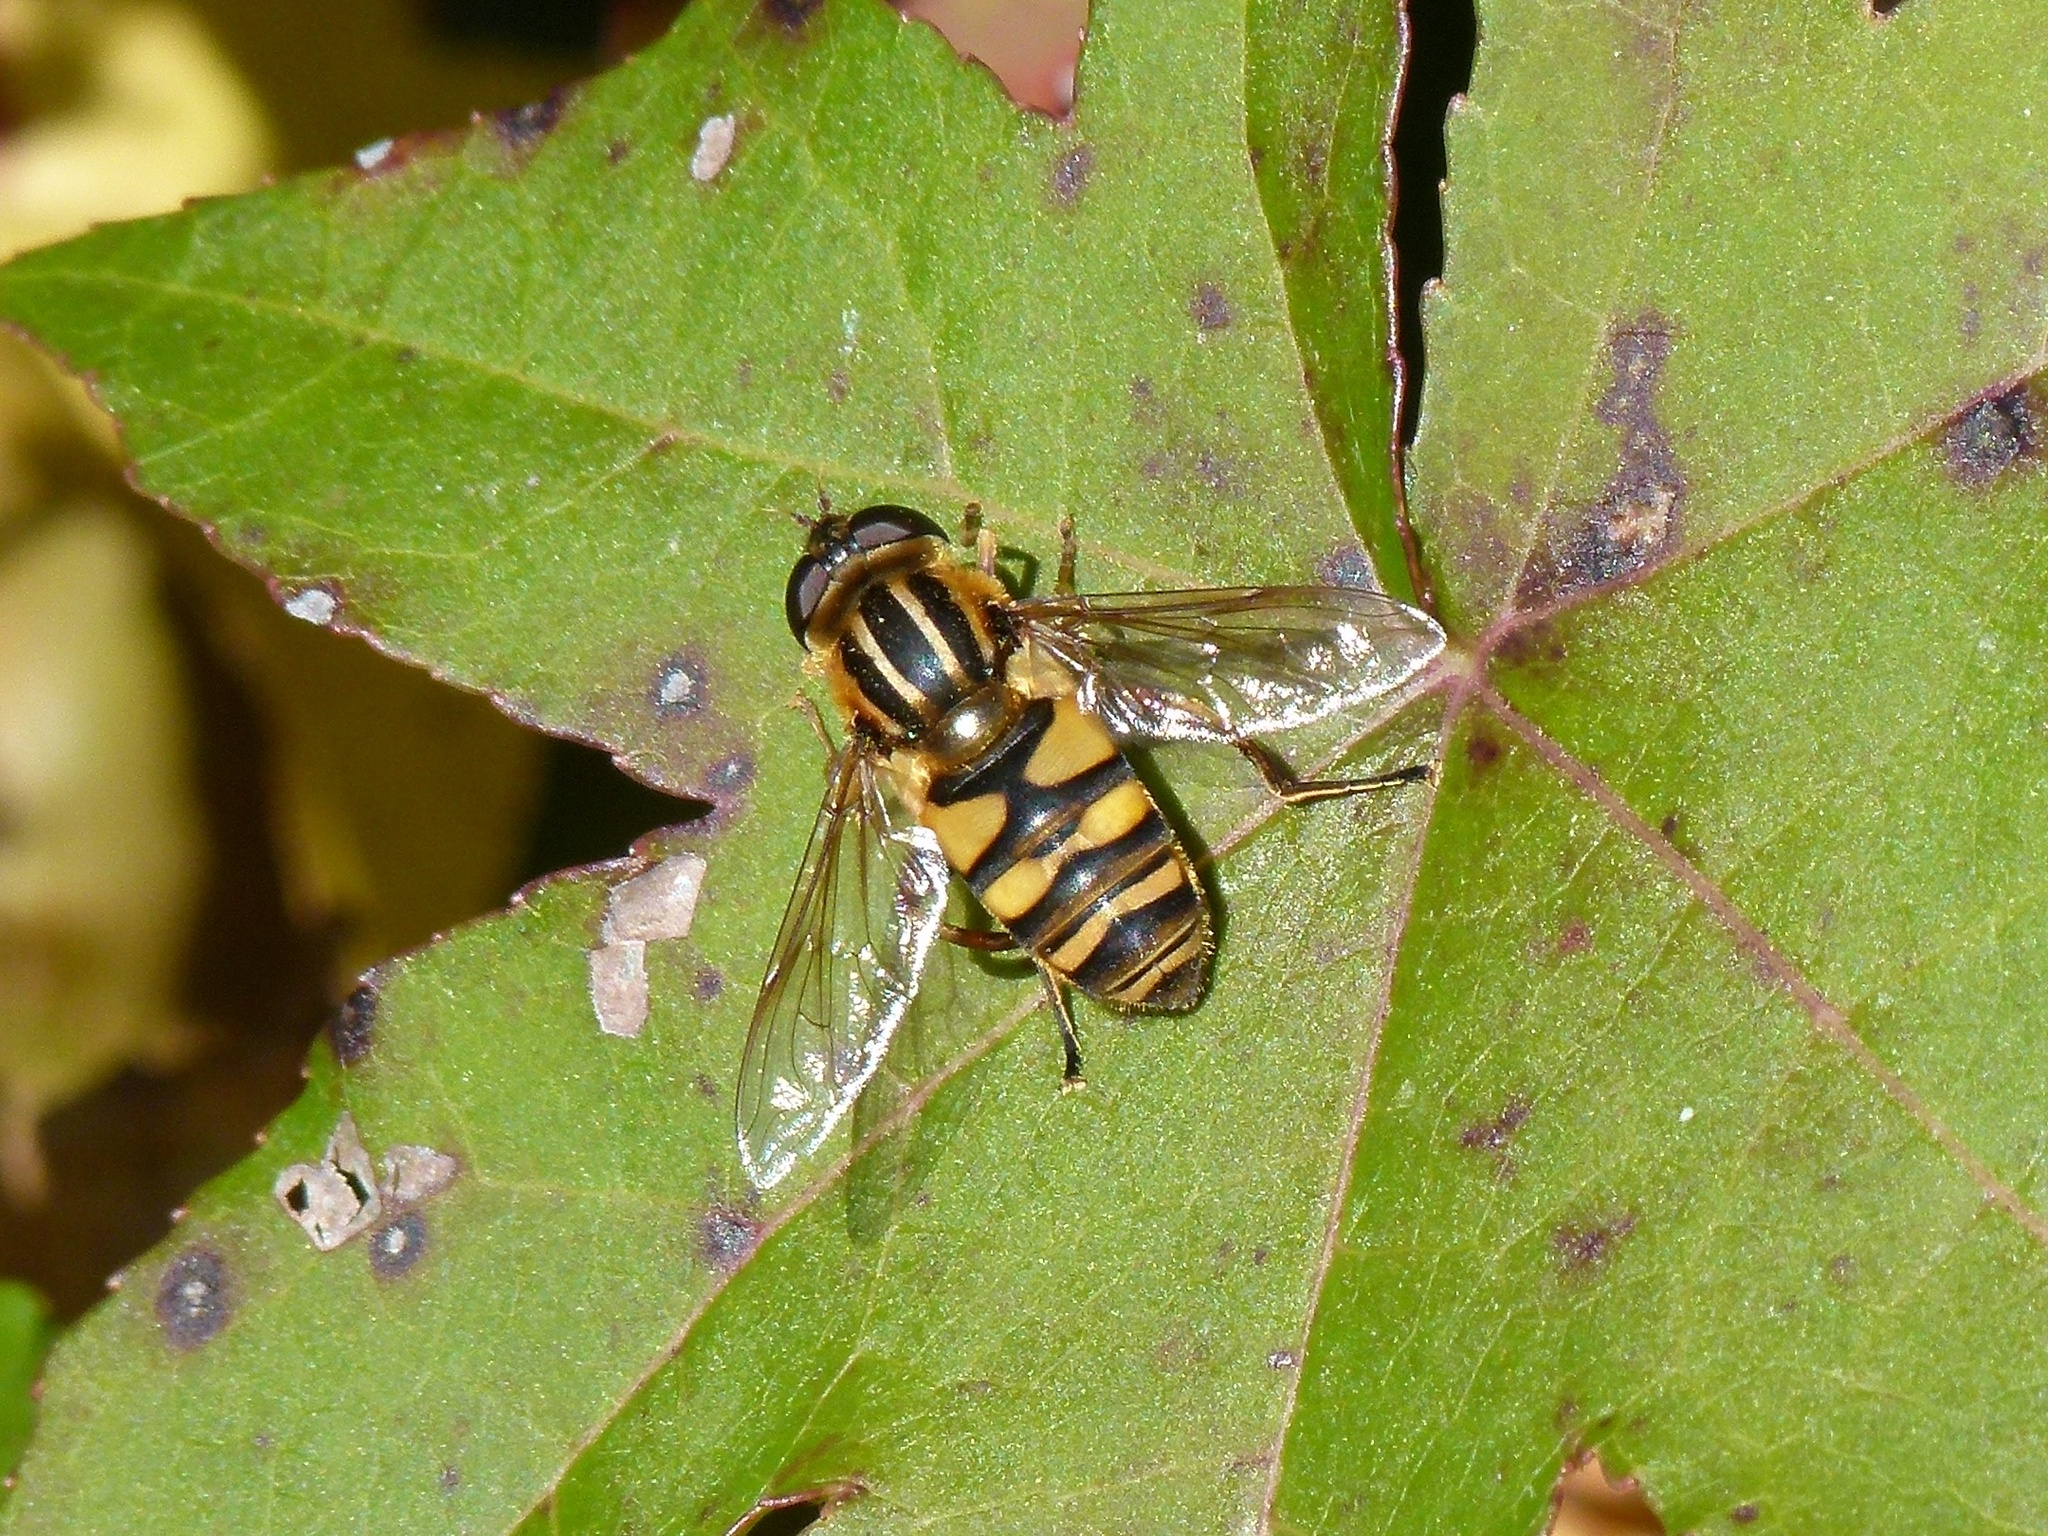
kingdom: Animalia
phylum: Arthropoda
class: Insecta
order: Diptera
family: Syrphidae
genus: Helophilus
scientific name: Helophilus fasciatus
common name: Narrow-headed marsh fly
